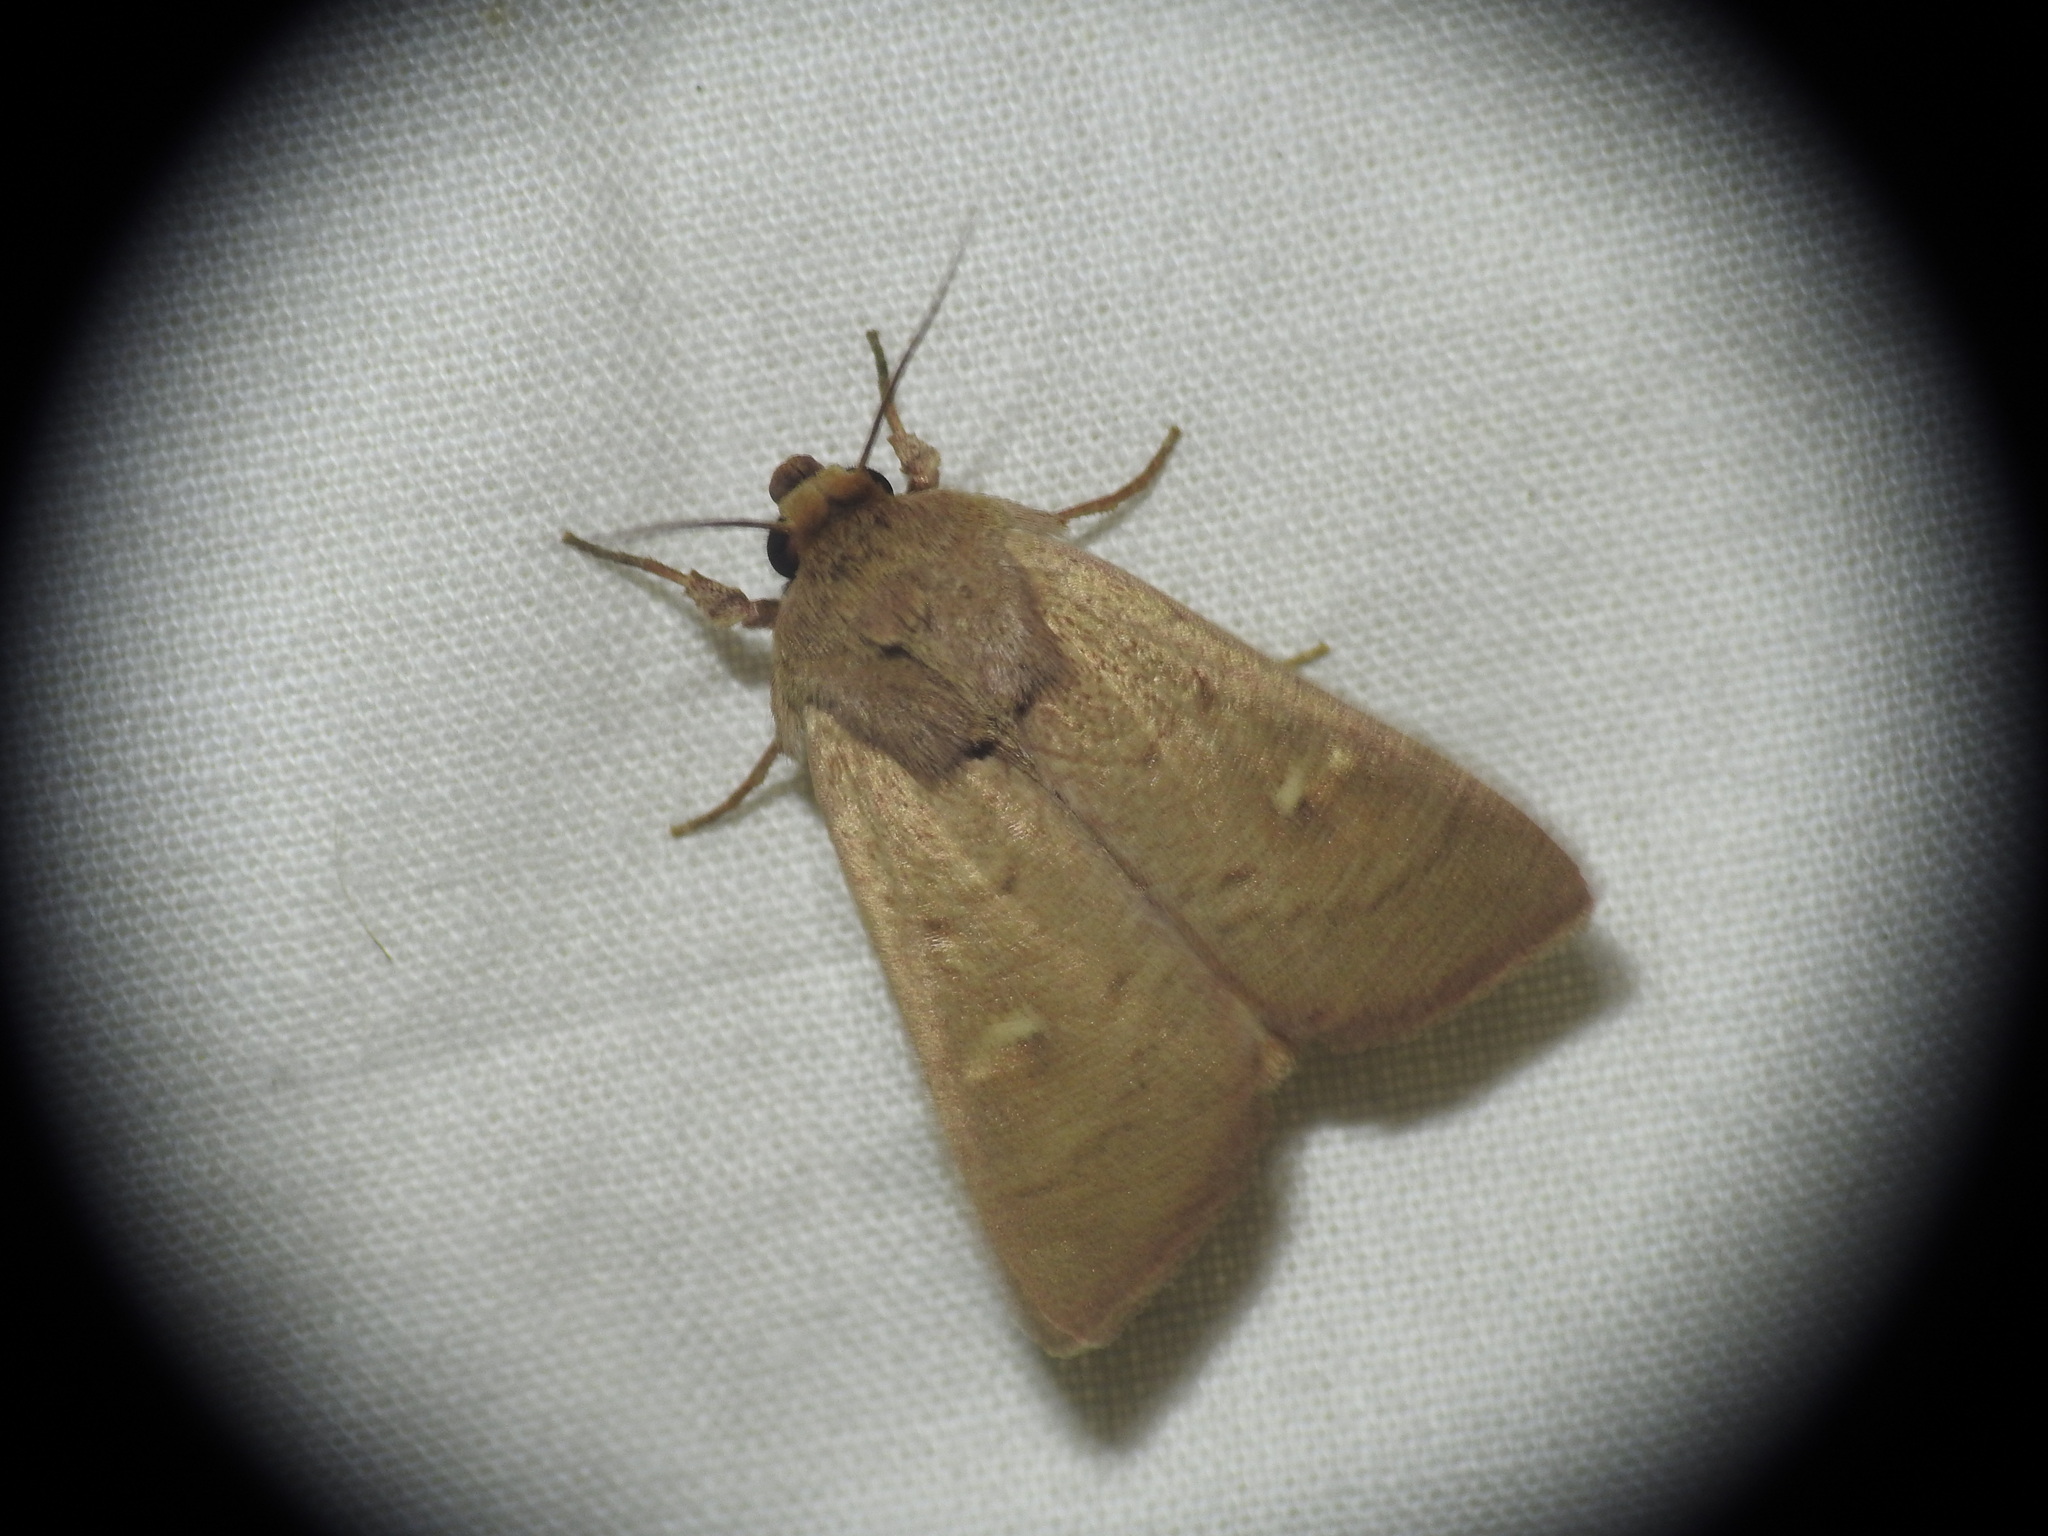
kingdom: Animalia
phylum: Arthropoda
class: Insecta
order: Lepidoptera
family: Noctuidae
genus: Mythimna
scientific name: Mythimna ferrago
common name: Clay
